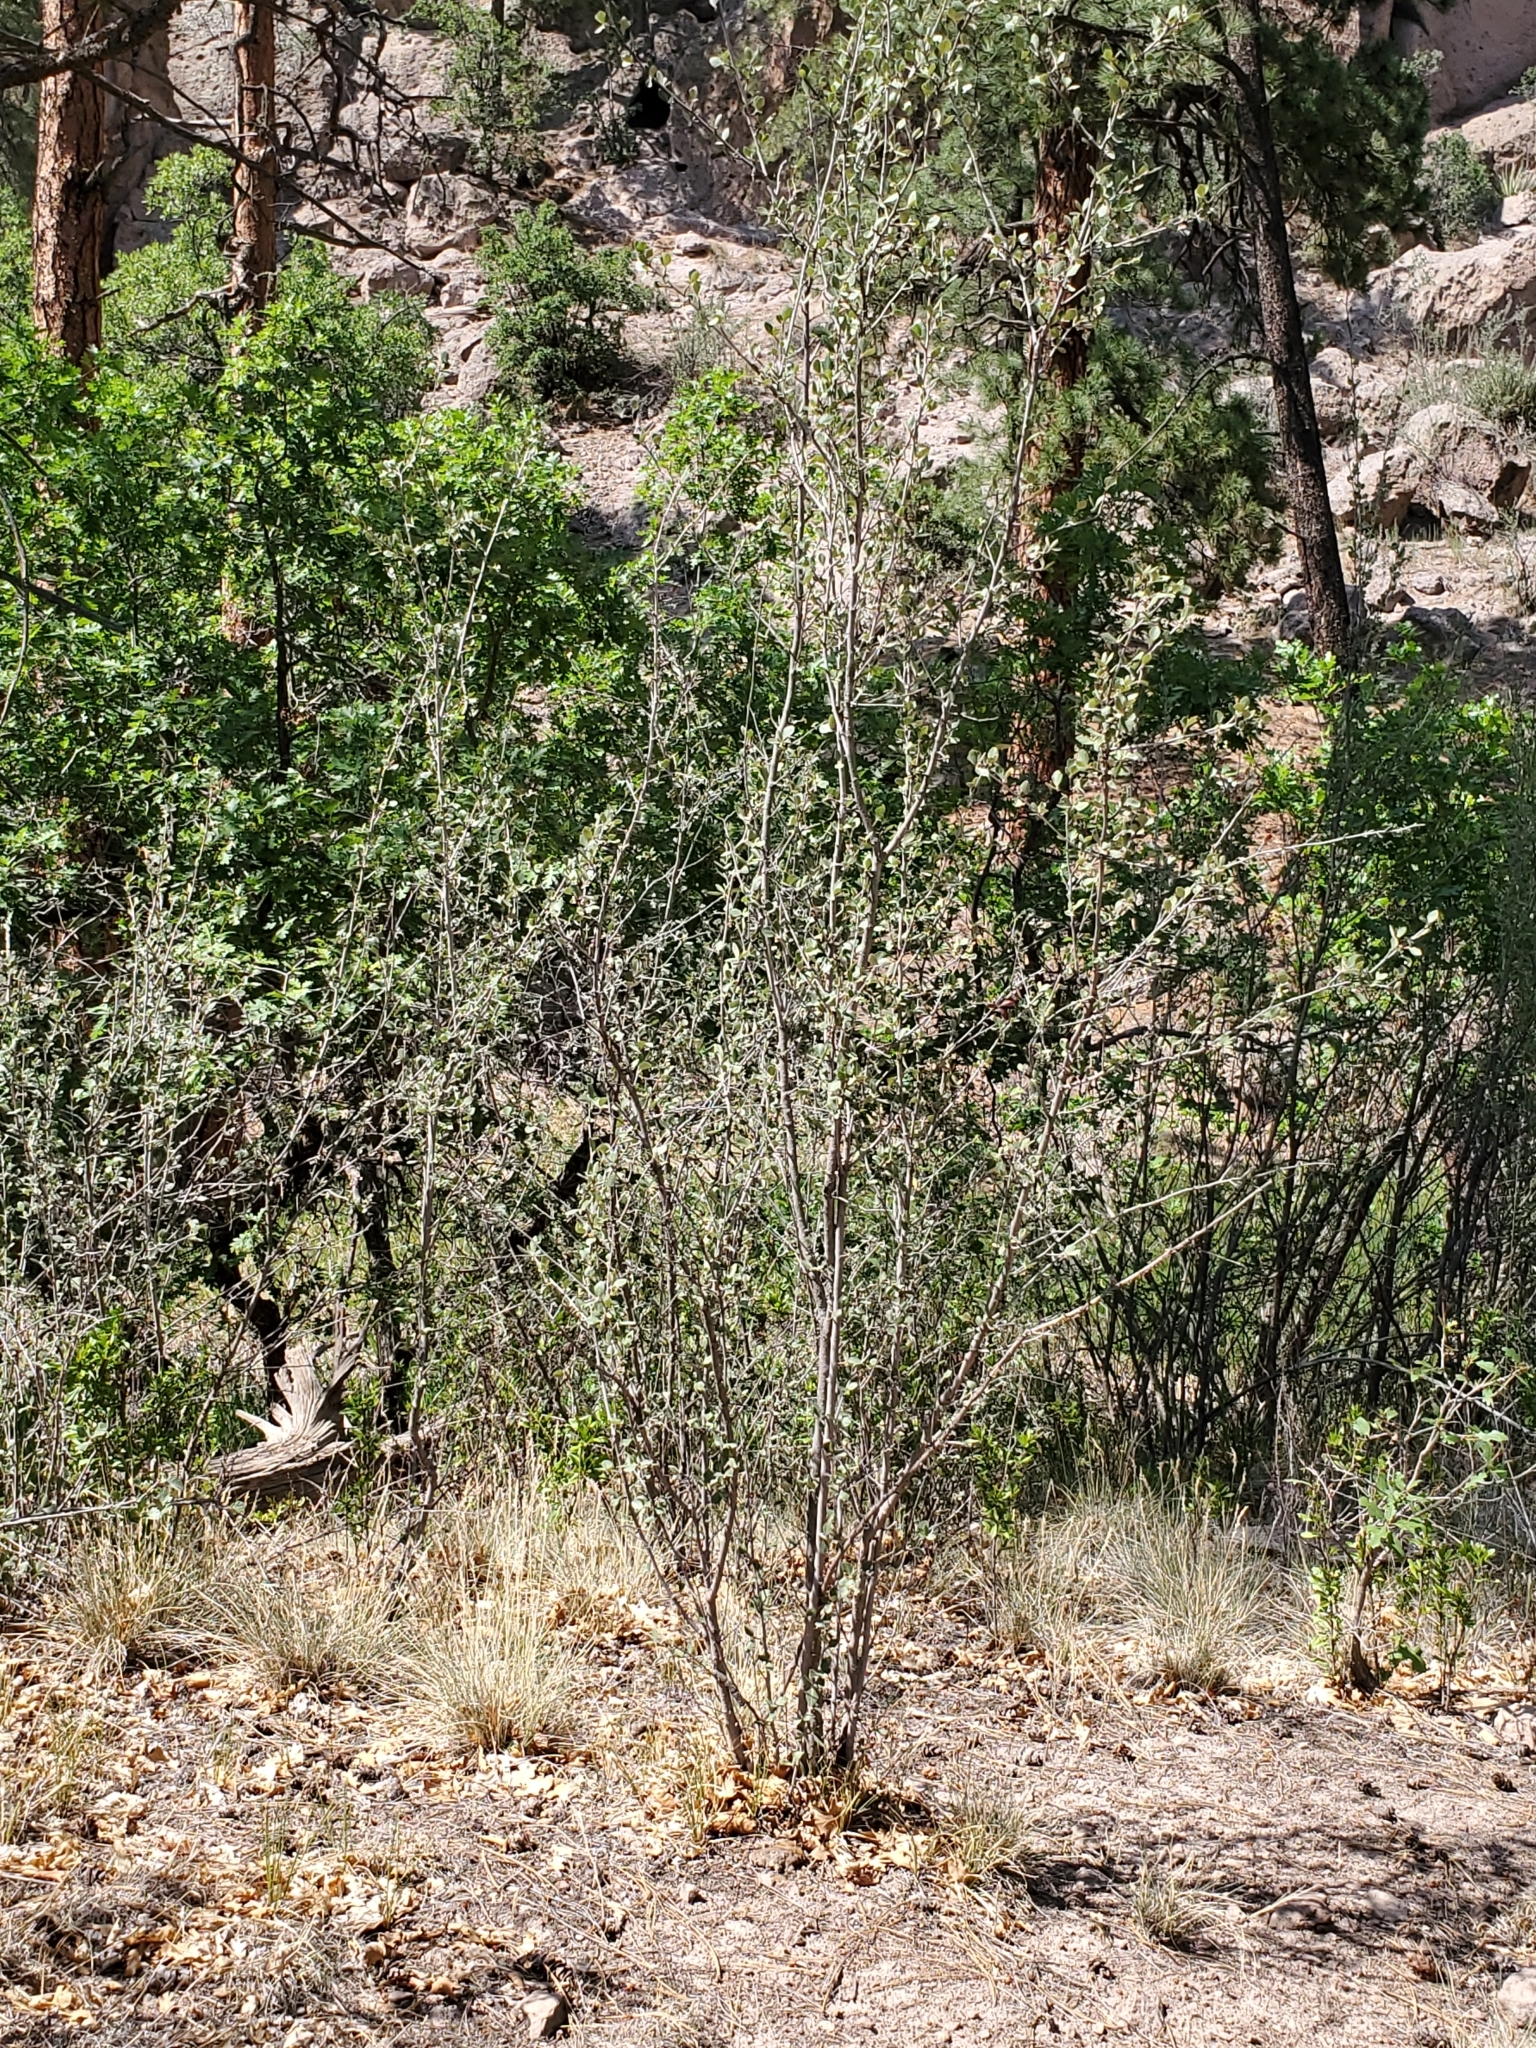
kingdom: Plantae
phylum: Tracheophyta
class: Magnoliopsida
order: Rosales
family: Rosaceae
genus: Cercocarpus
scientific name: Cercocarpus montanus
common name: Alder-leaf cercocarpus
